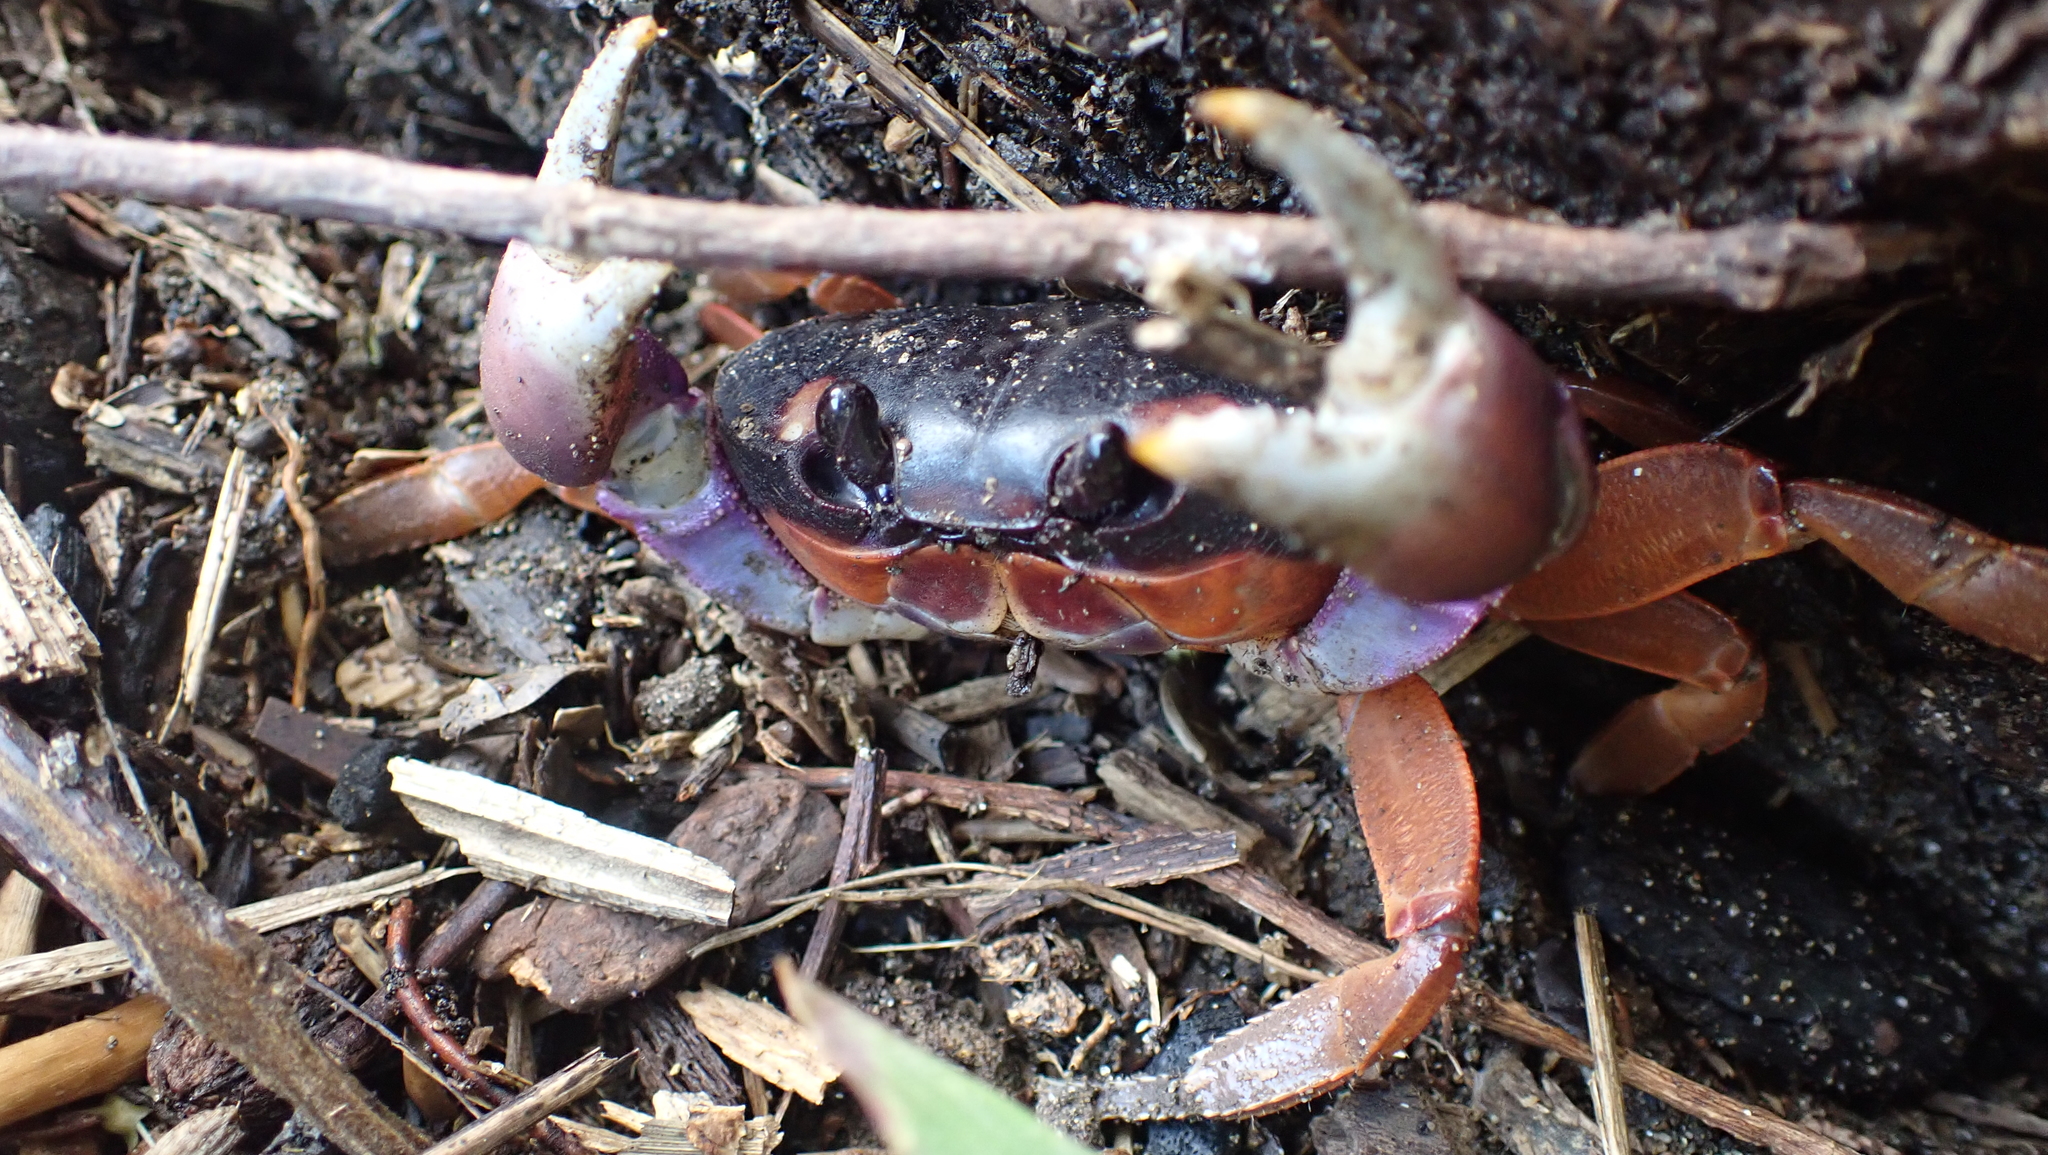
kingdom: Animalia
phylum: Arthropoda
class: Malacostraca
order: Decapoda
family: Gecarcinidae
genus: Gecarcinus
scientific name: Gecarcinus quadratus
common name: Halloween crab
